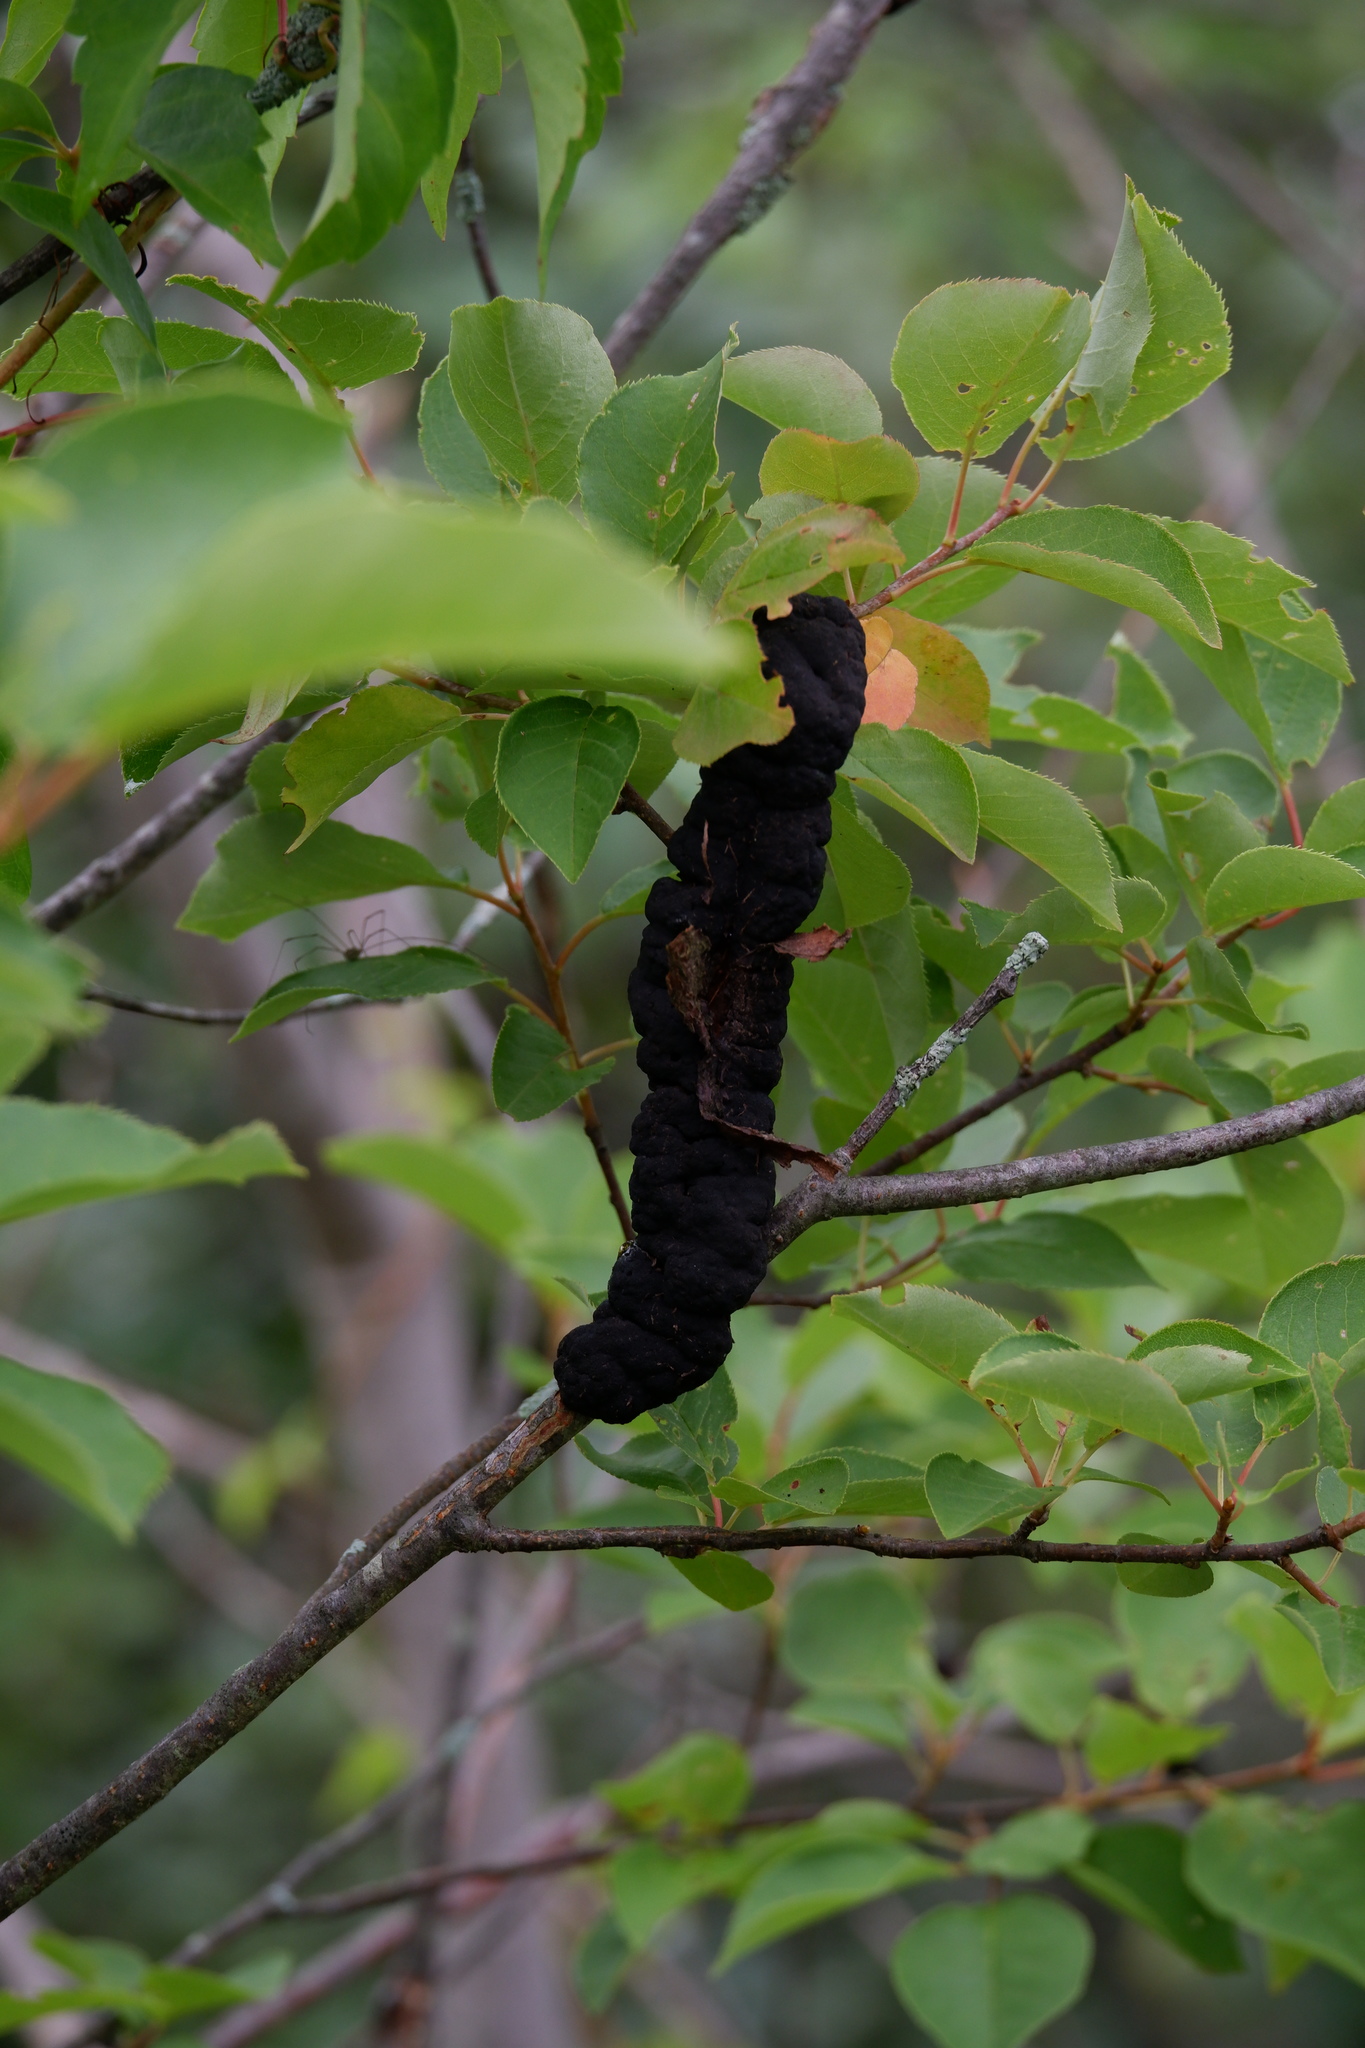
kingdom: Fungi
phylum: Ascomycota
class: Dothideomycetes
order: Venturiales
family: Venturiaceae
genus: Apiosporina
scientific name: Apiosporina morbosa
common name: Black knot
